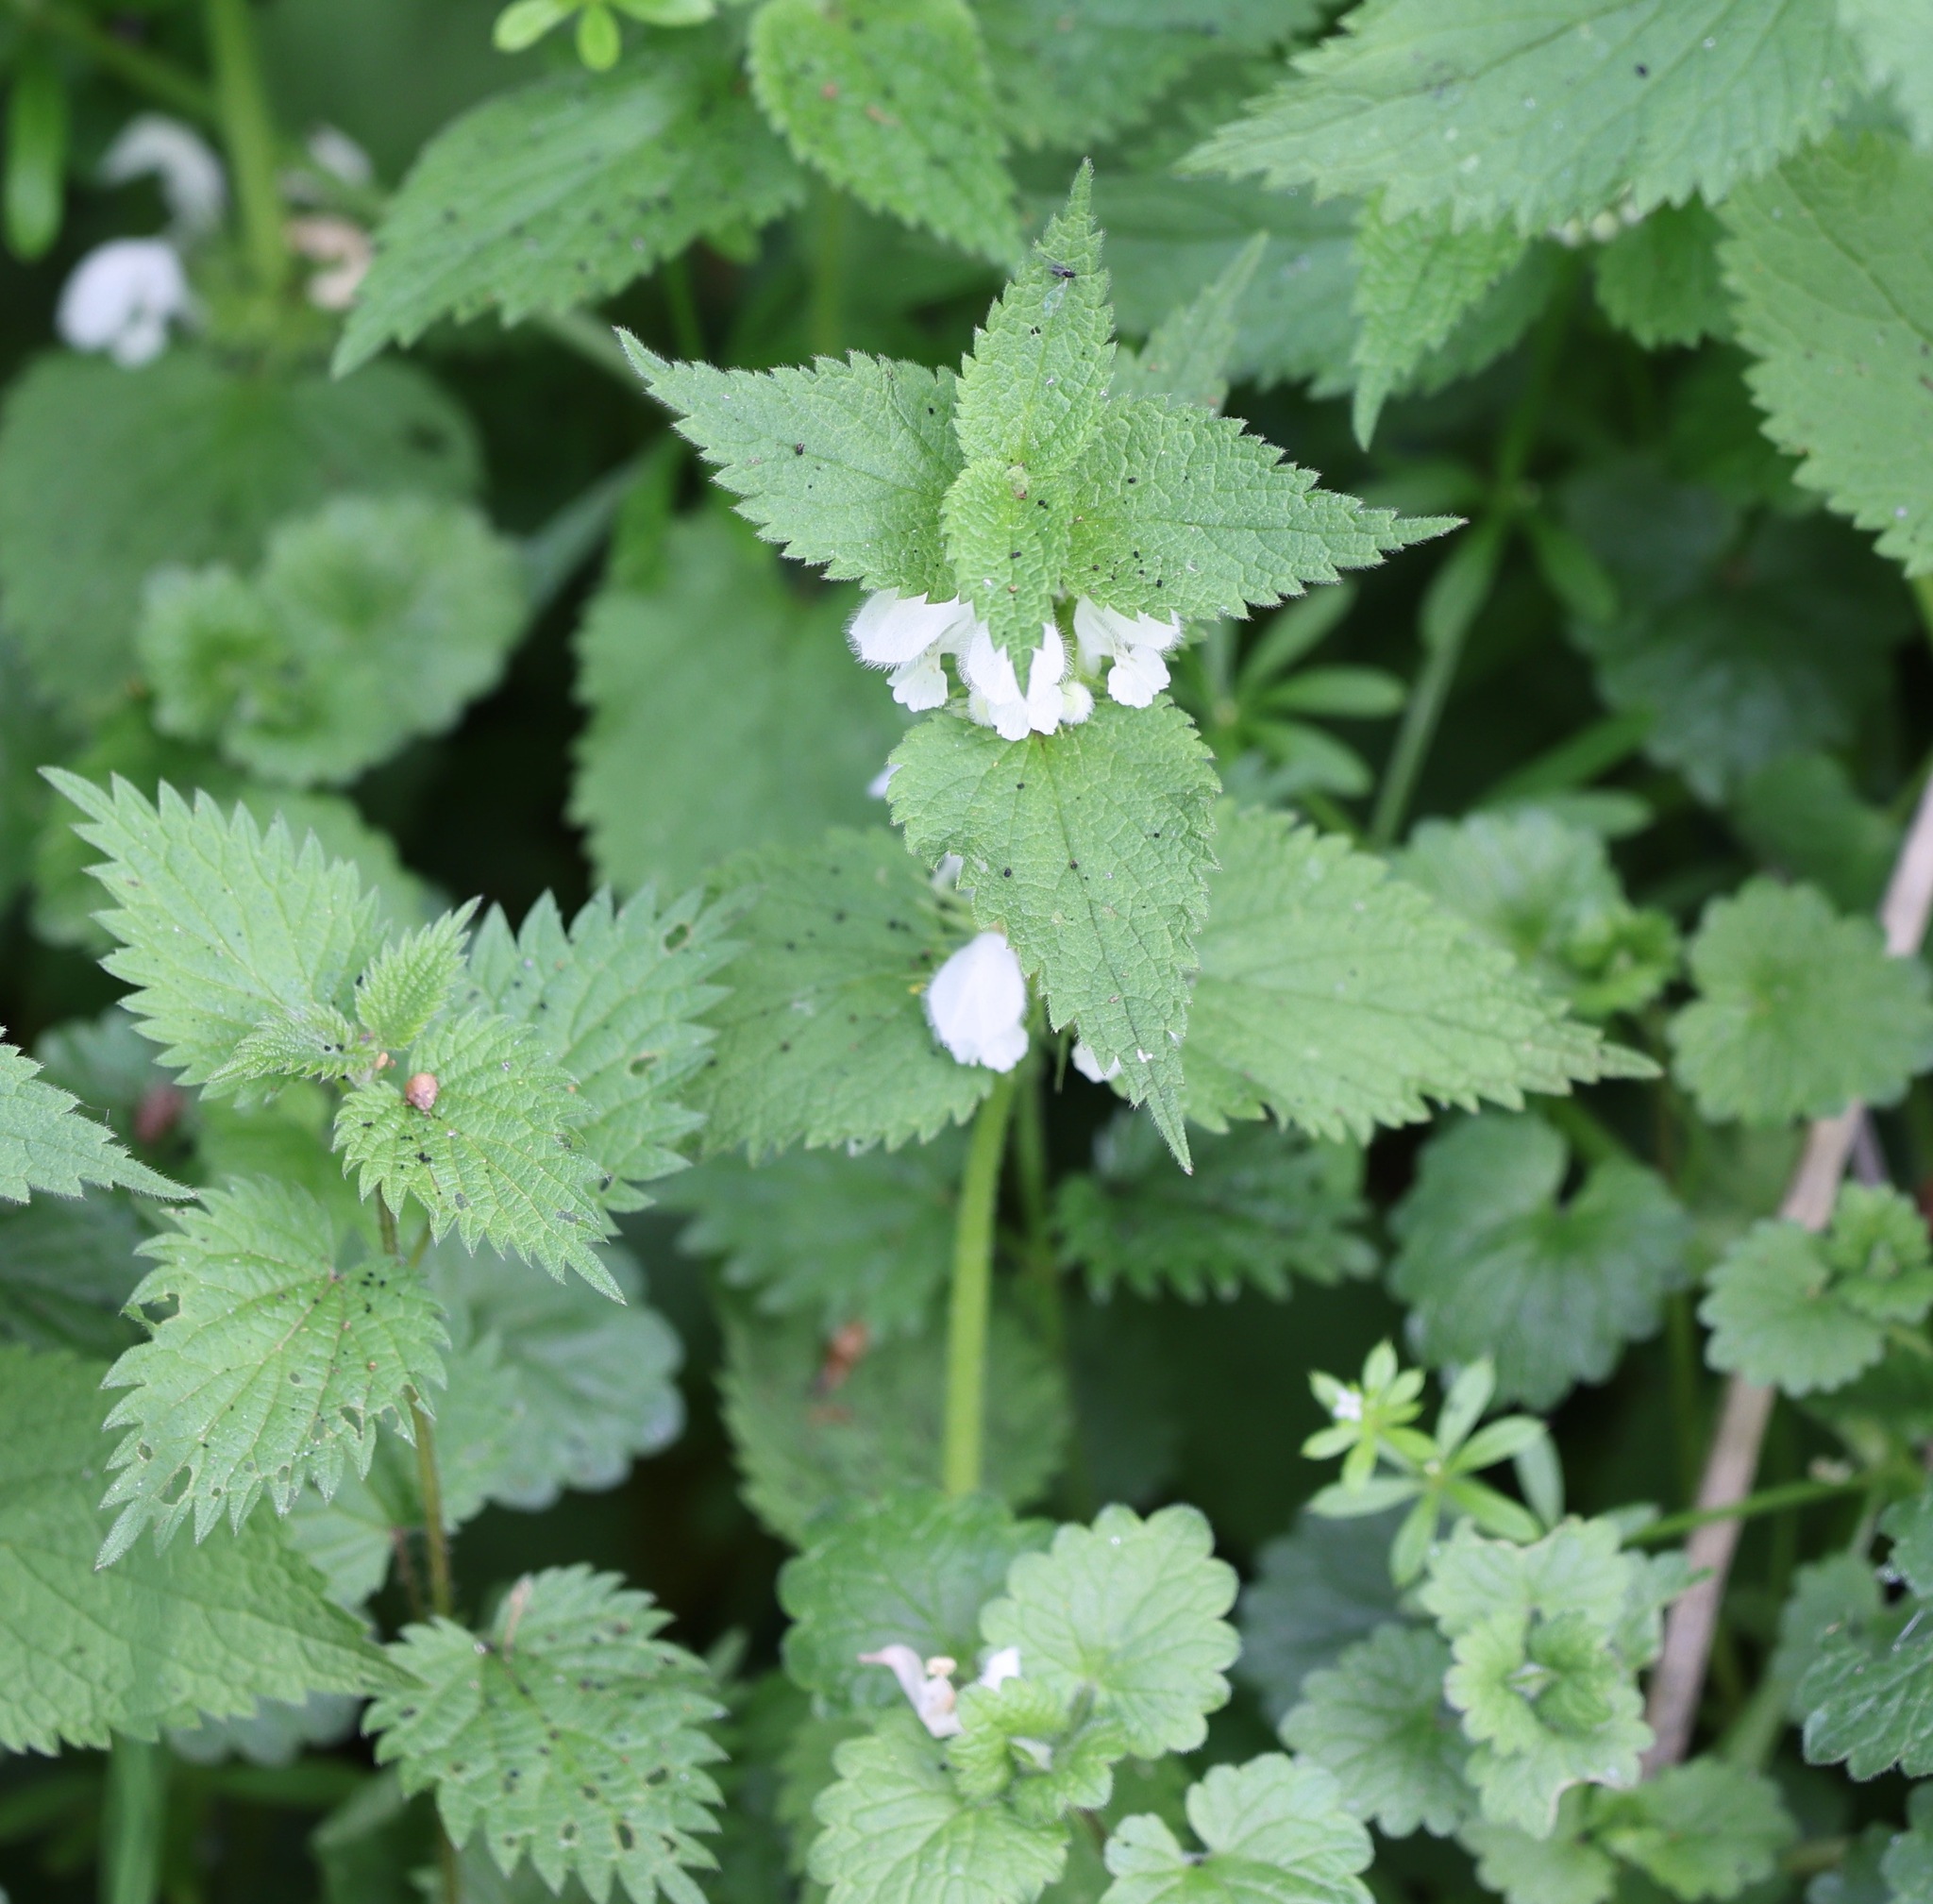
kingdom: Plantae
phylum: Tracheophyta
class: Magnoliopsida
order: Lamiales
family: Lamiaceae
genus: Lamium
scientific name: Lamium album
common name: White dead-nettle
